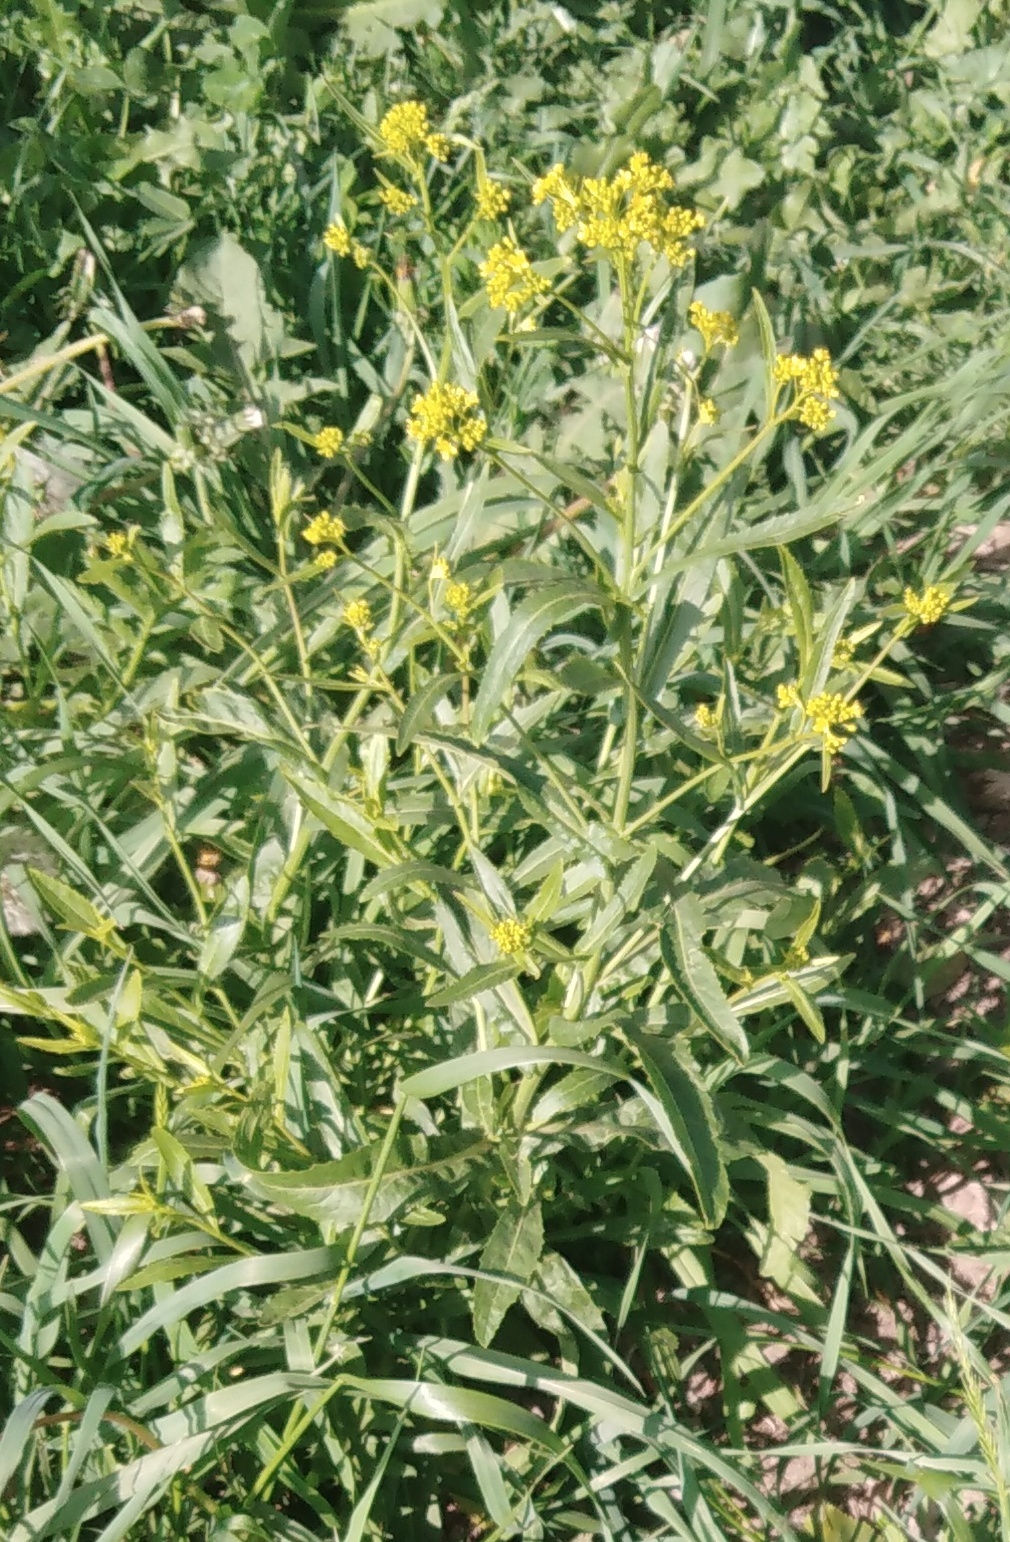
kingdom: Plantae
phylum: Tracheophyta
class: Magnoliopsida
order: Brassicales
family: Brassicaceae
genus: Bunias
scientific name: Bunias orientalis
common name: Warty-cabbage
